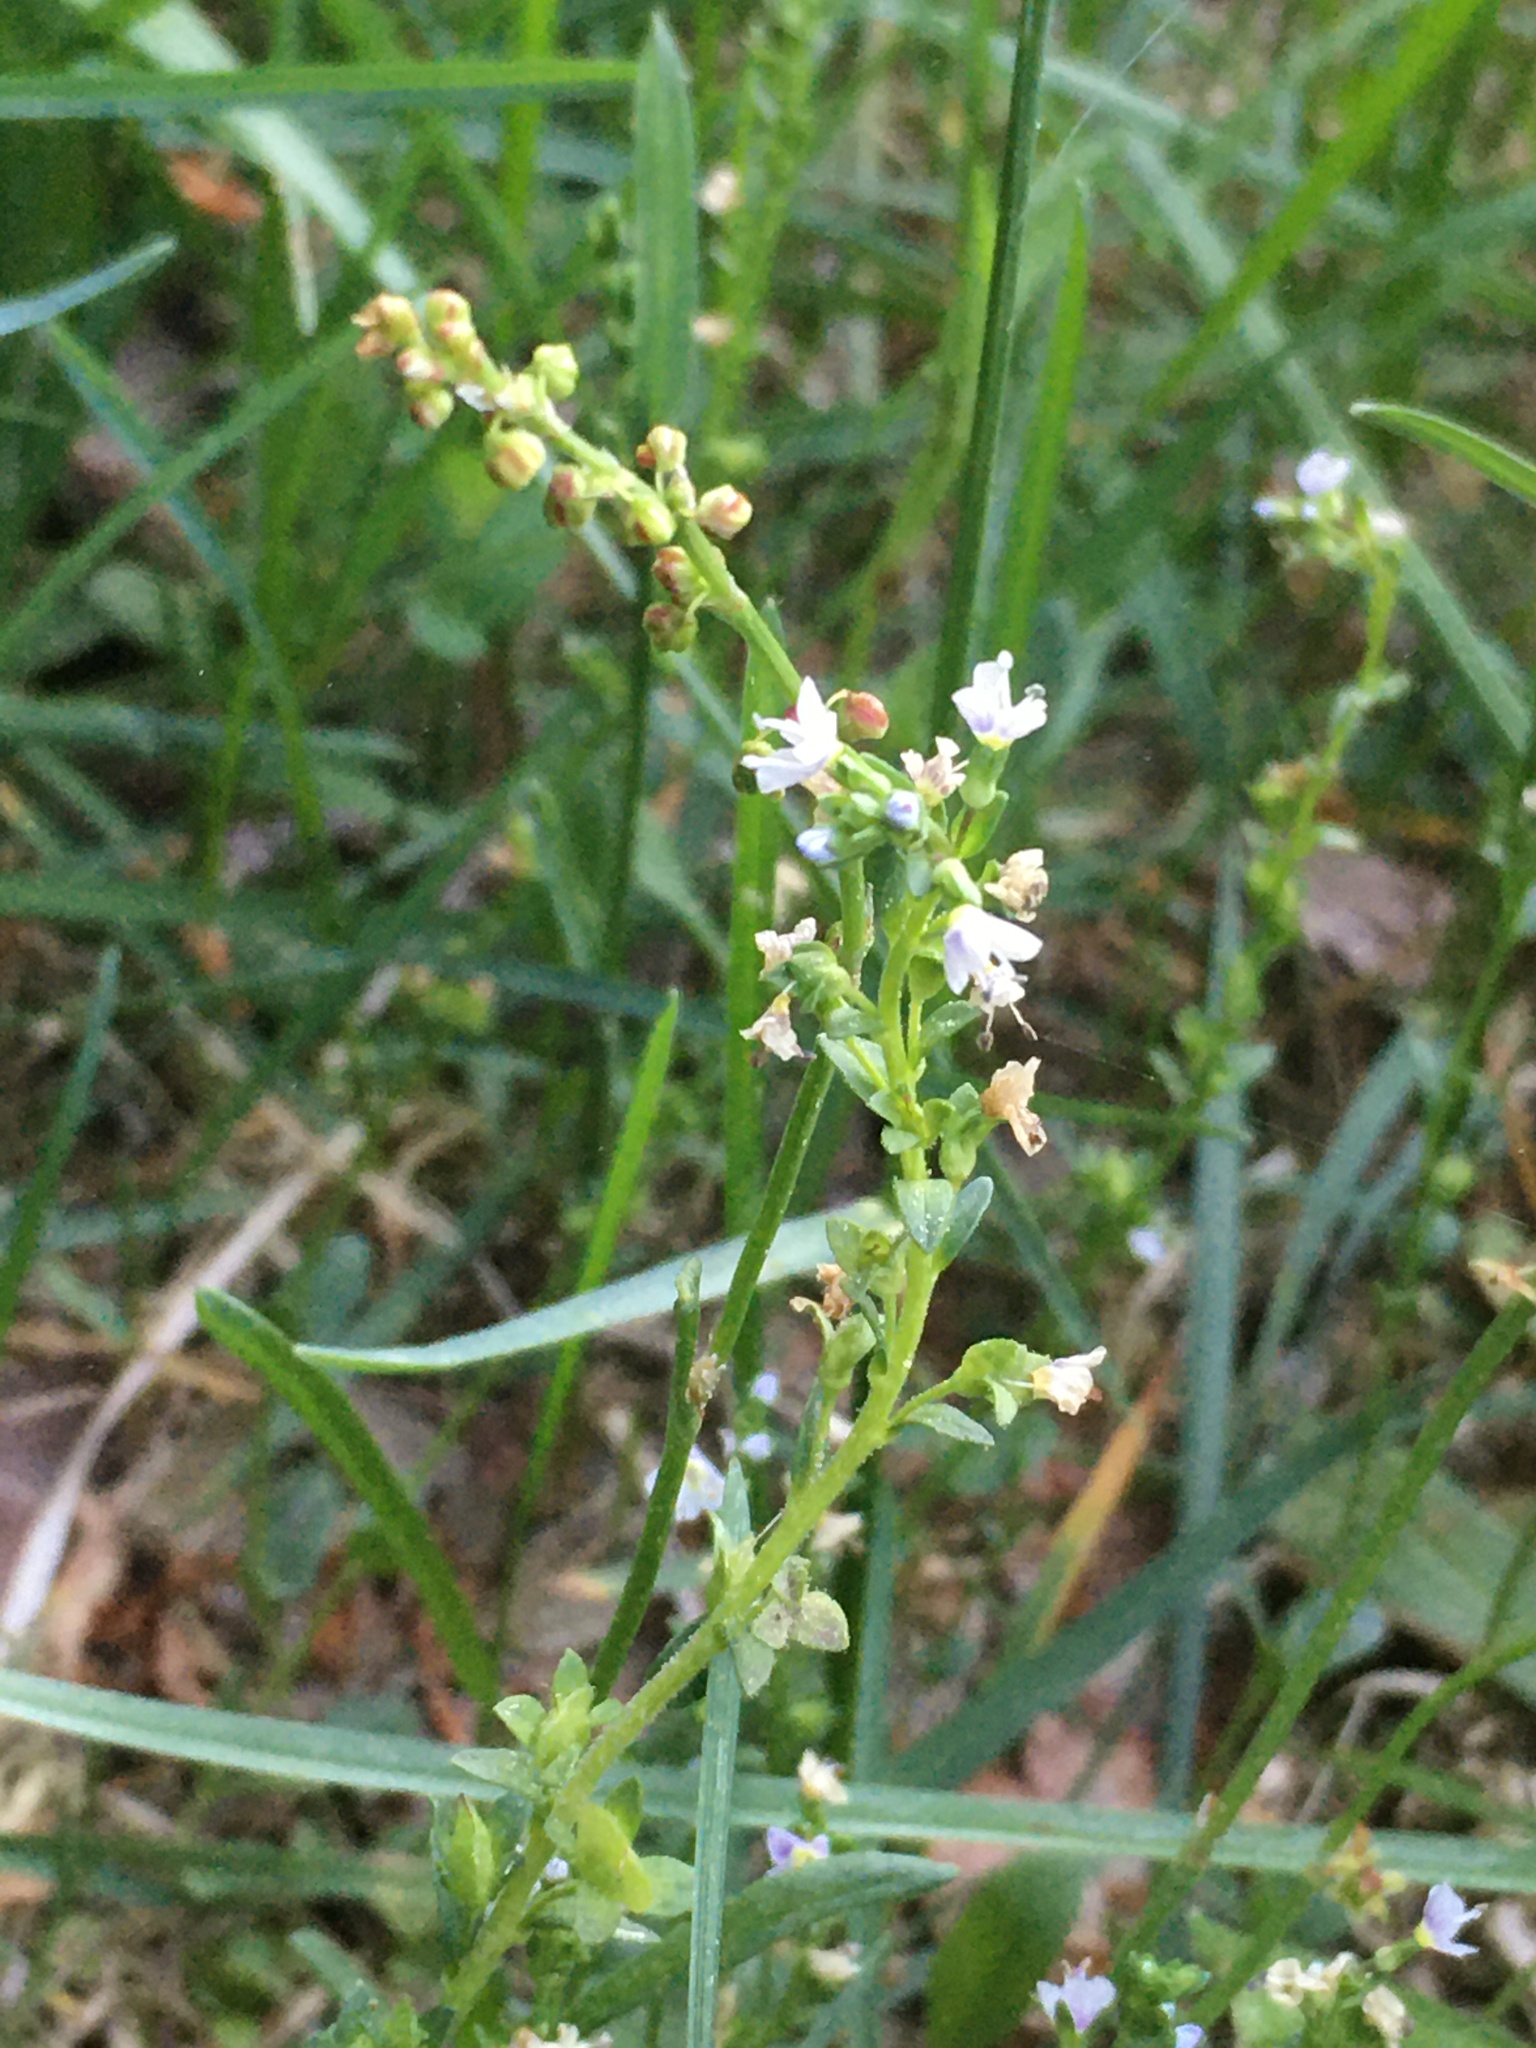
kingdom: Plantae
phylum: Tracheophyta
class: Magnoliopsida
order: Lamiales
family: Plantaginaceae
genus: Veronica
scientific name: Veronica serpyllifolia
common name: Thyme-leaved speedwell
